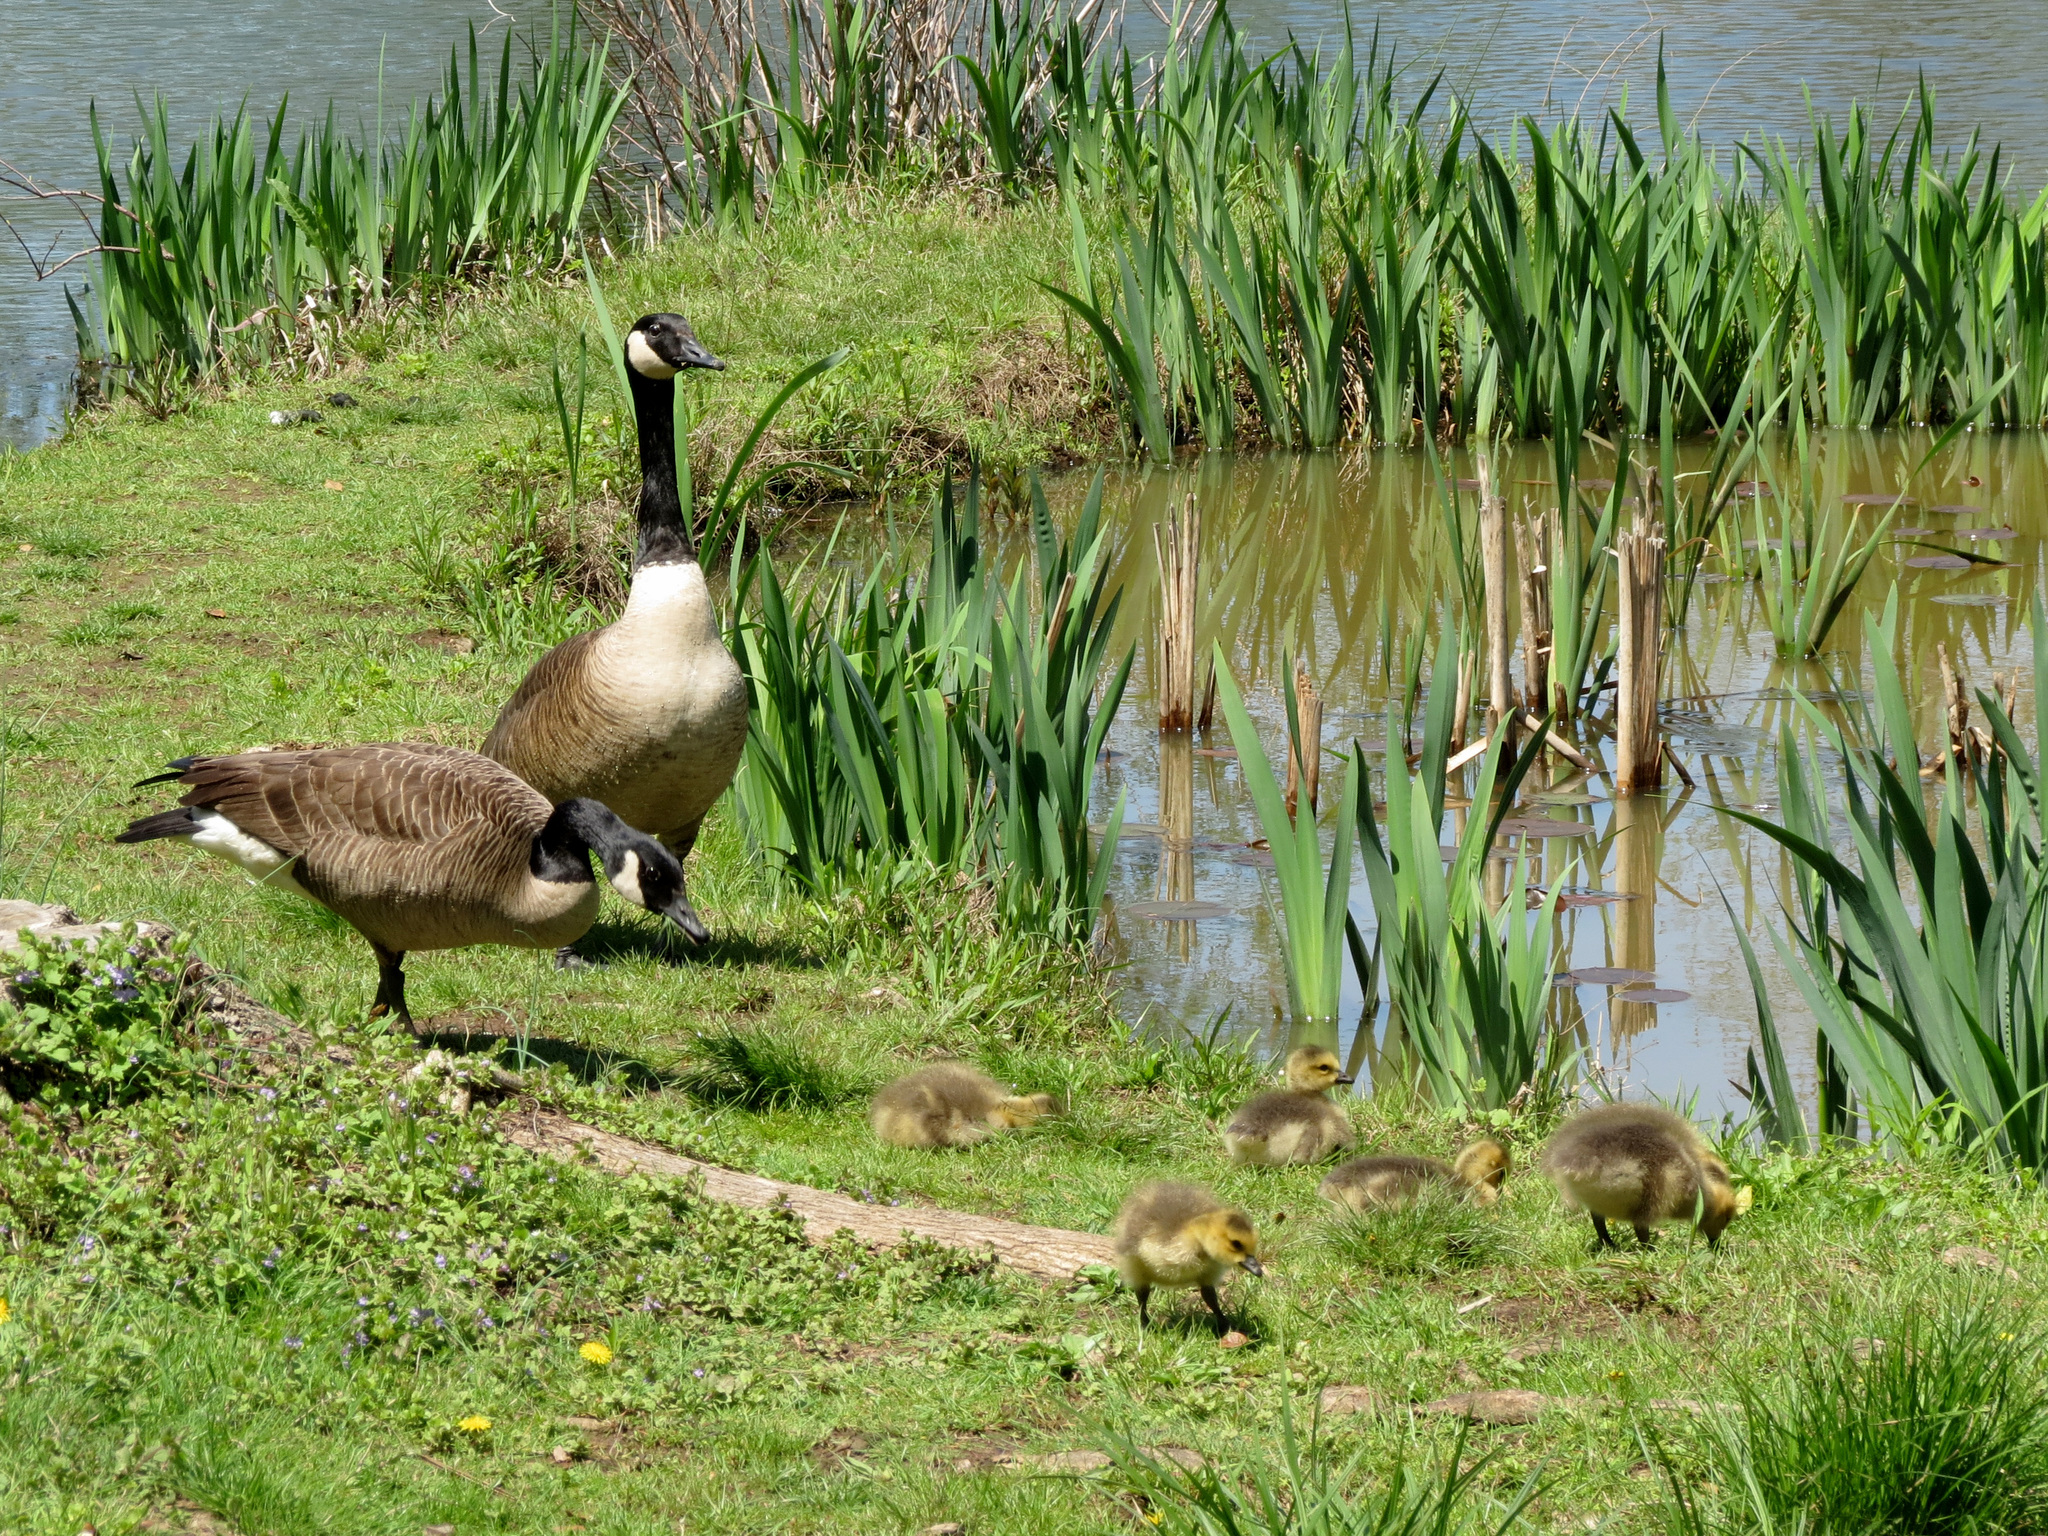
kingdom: Animalia
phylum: Chordata
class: Aves
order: Anseriformes
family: Anatidae
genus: Branta
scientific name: Branta canadensis
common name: Canada goose
